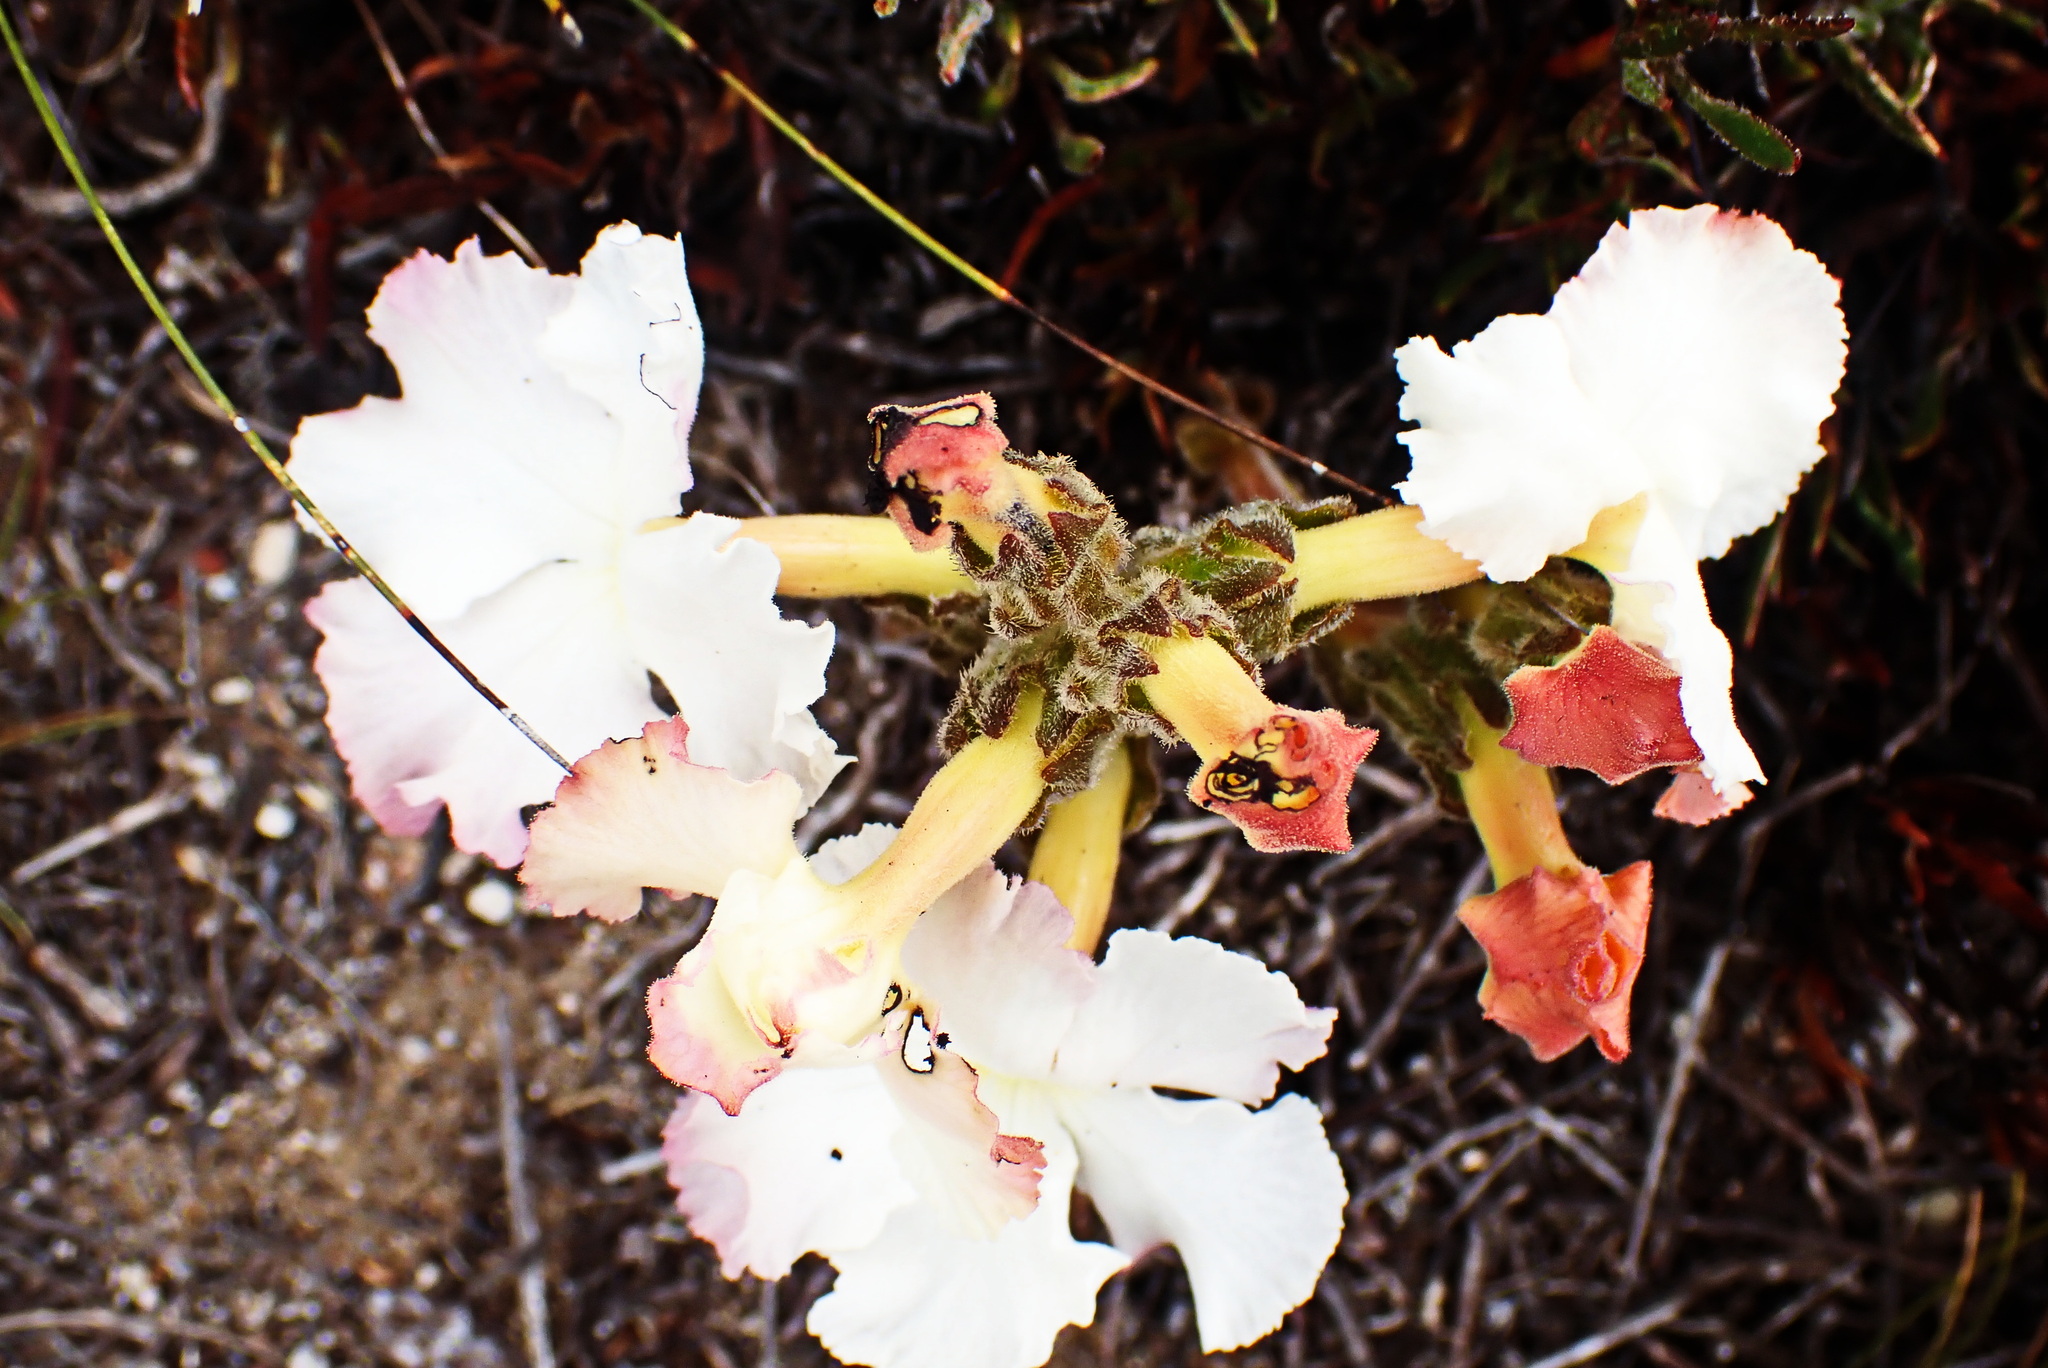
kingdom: Plantae
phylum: Tracheophyta
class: Magnoliopsida
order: Lamiales
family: Orobanchaceae
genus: Harveya
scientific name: Harveya capensis
